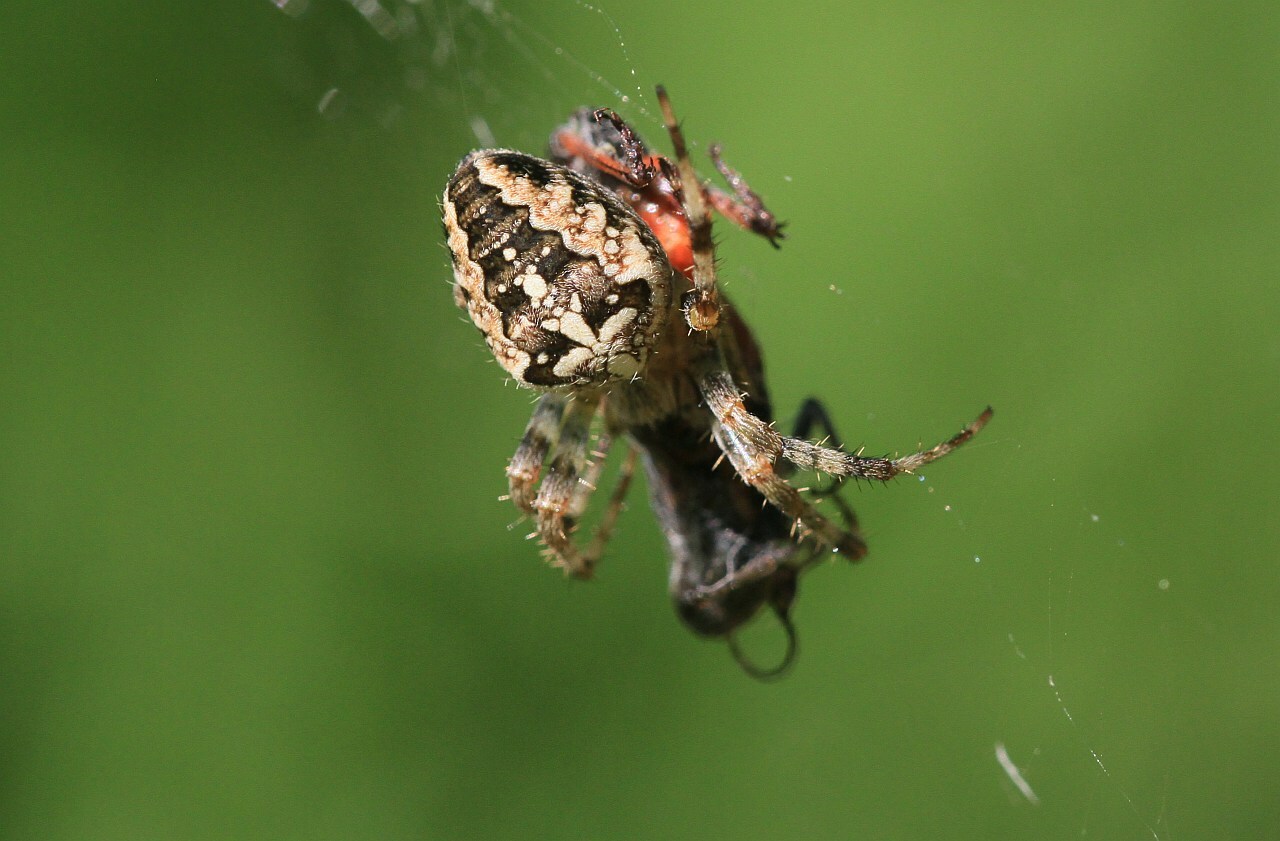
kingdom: Animalia
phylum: Arthropoda
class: Arachnida
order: Araneae
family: Araneidae
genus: Araneus
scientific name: Araneus diadematus
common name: Cross orbweaver
